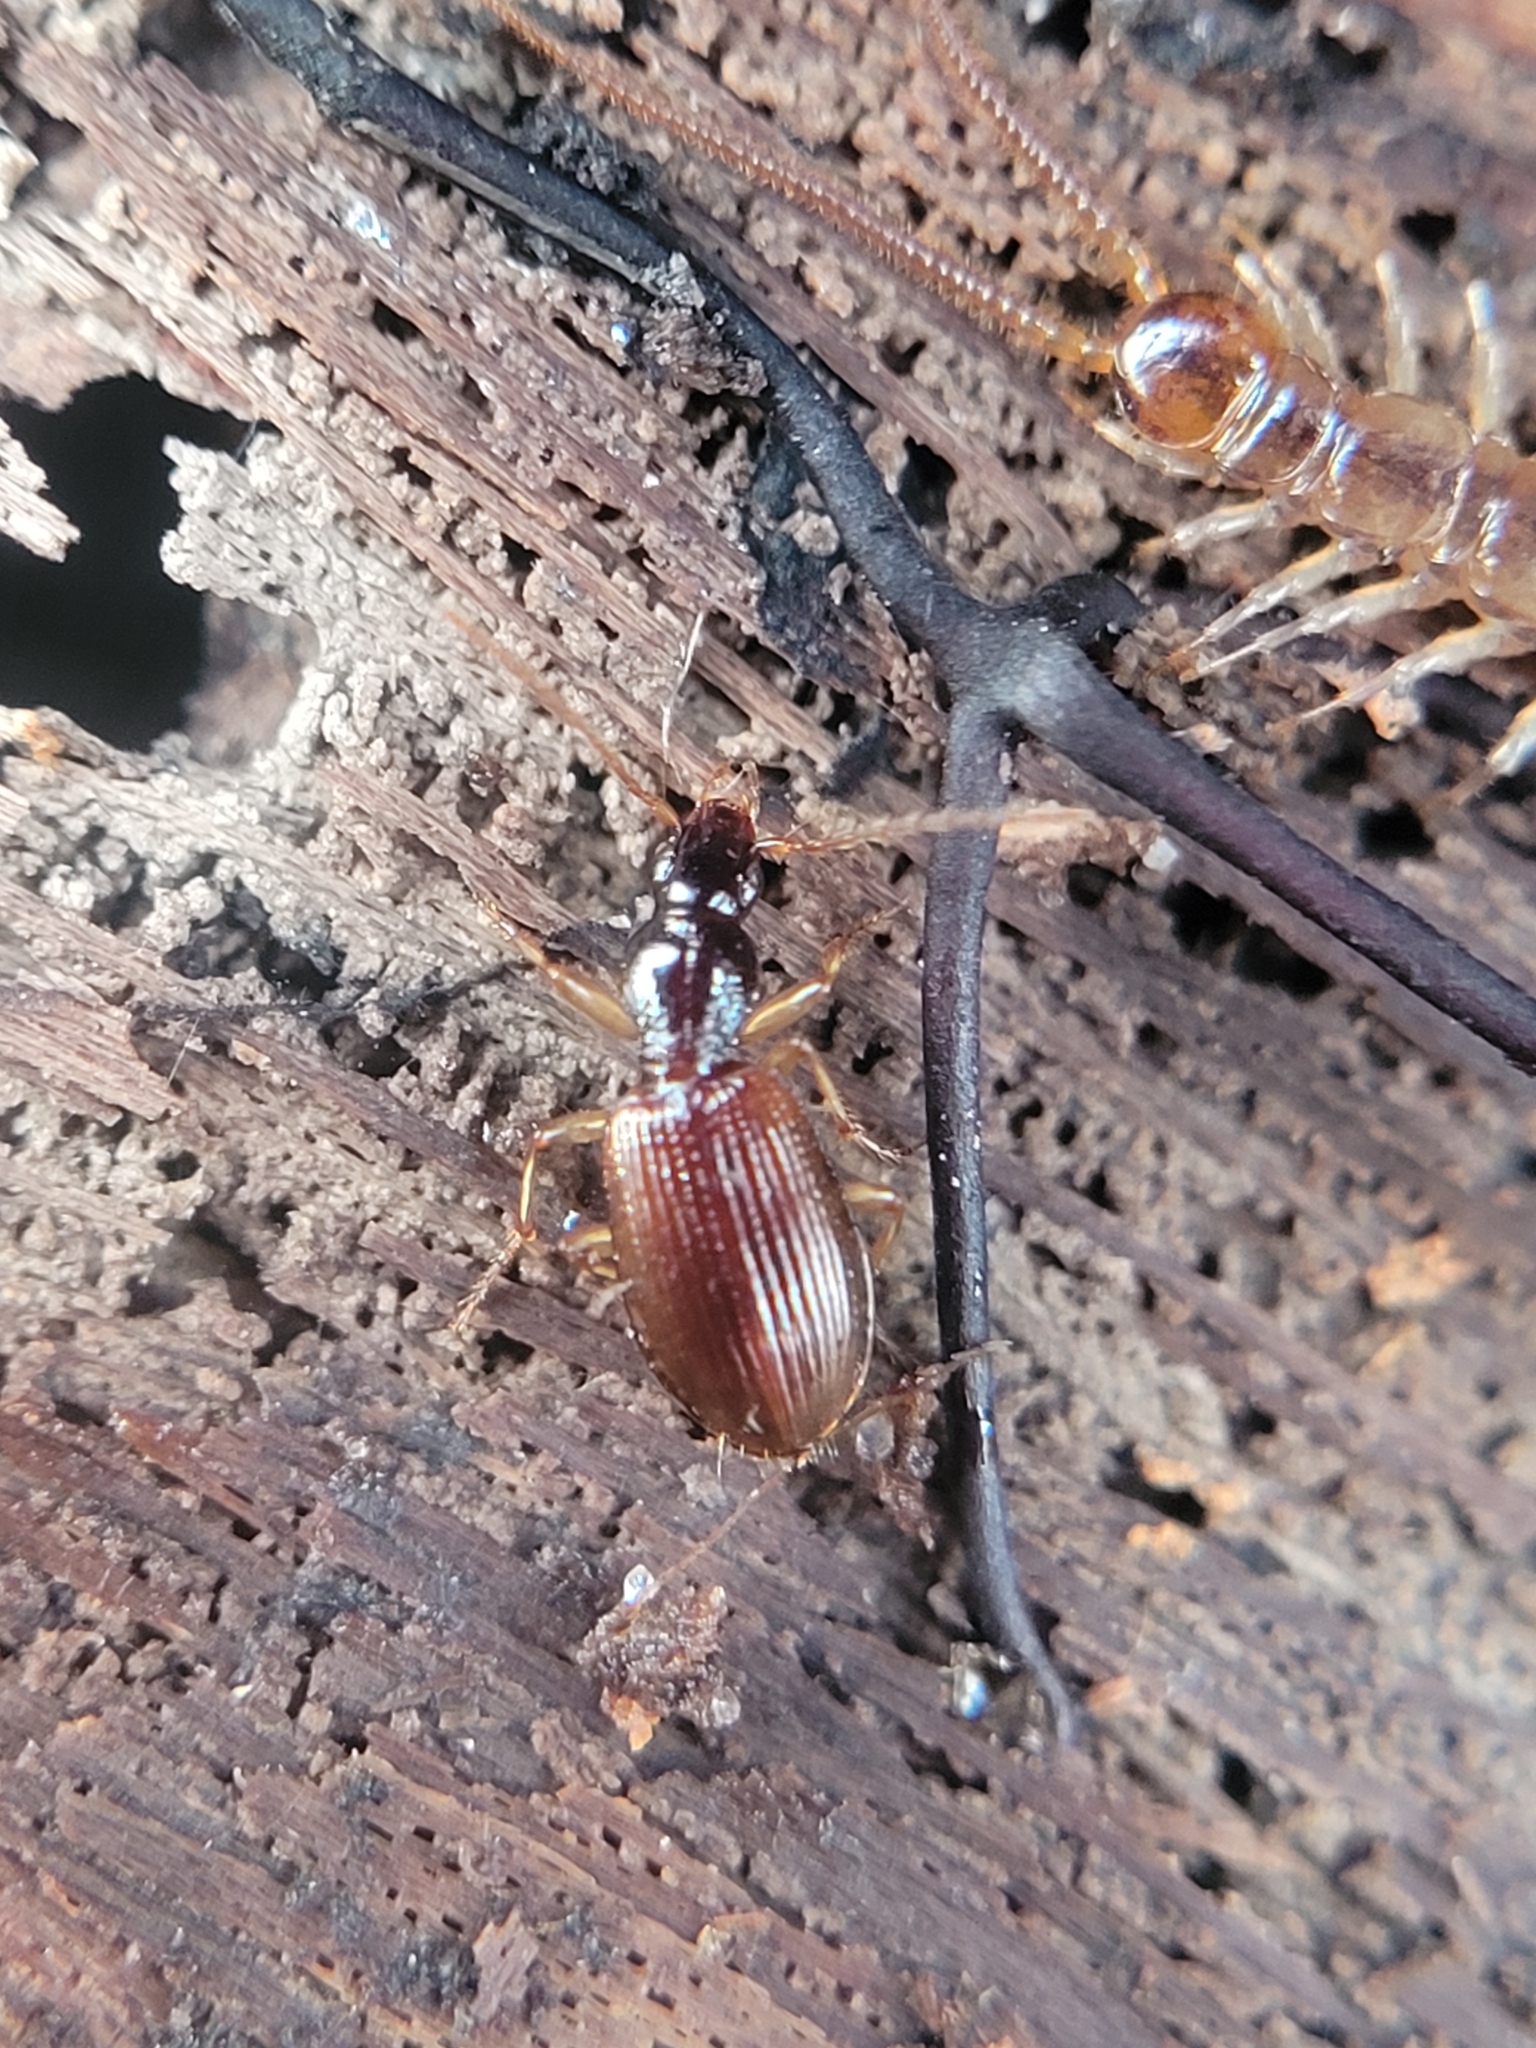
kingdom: Animalia
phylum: Arthropoda
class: Insecta
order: Coleoptera
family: Carabidae
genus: Oxypselaphus
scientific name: Oxypselaphus obscurus
